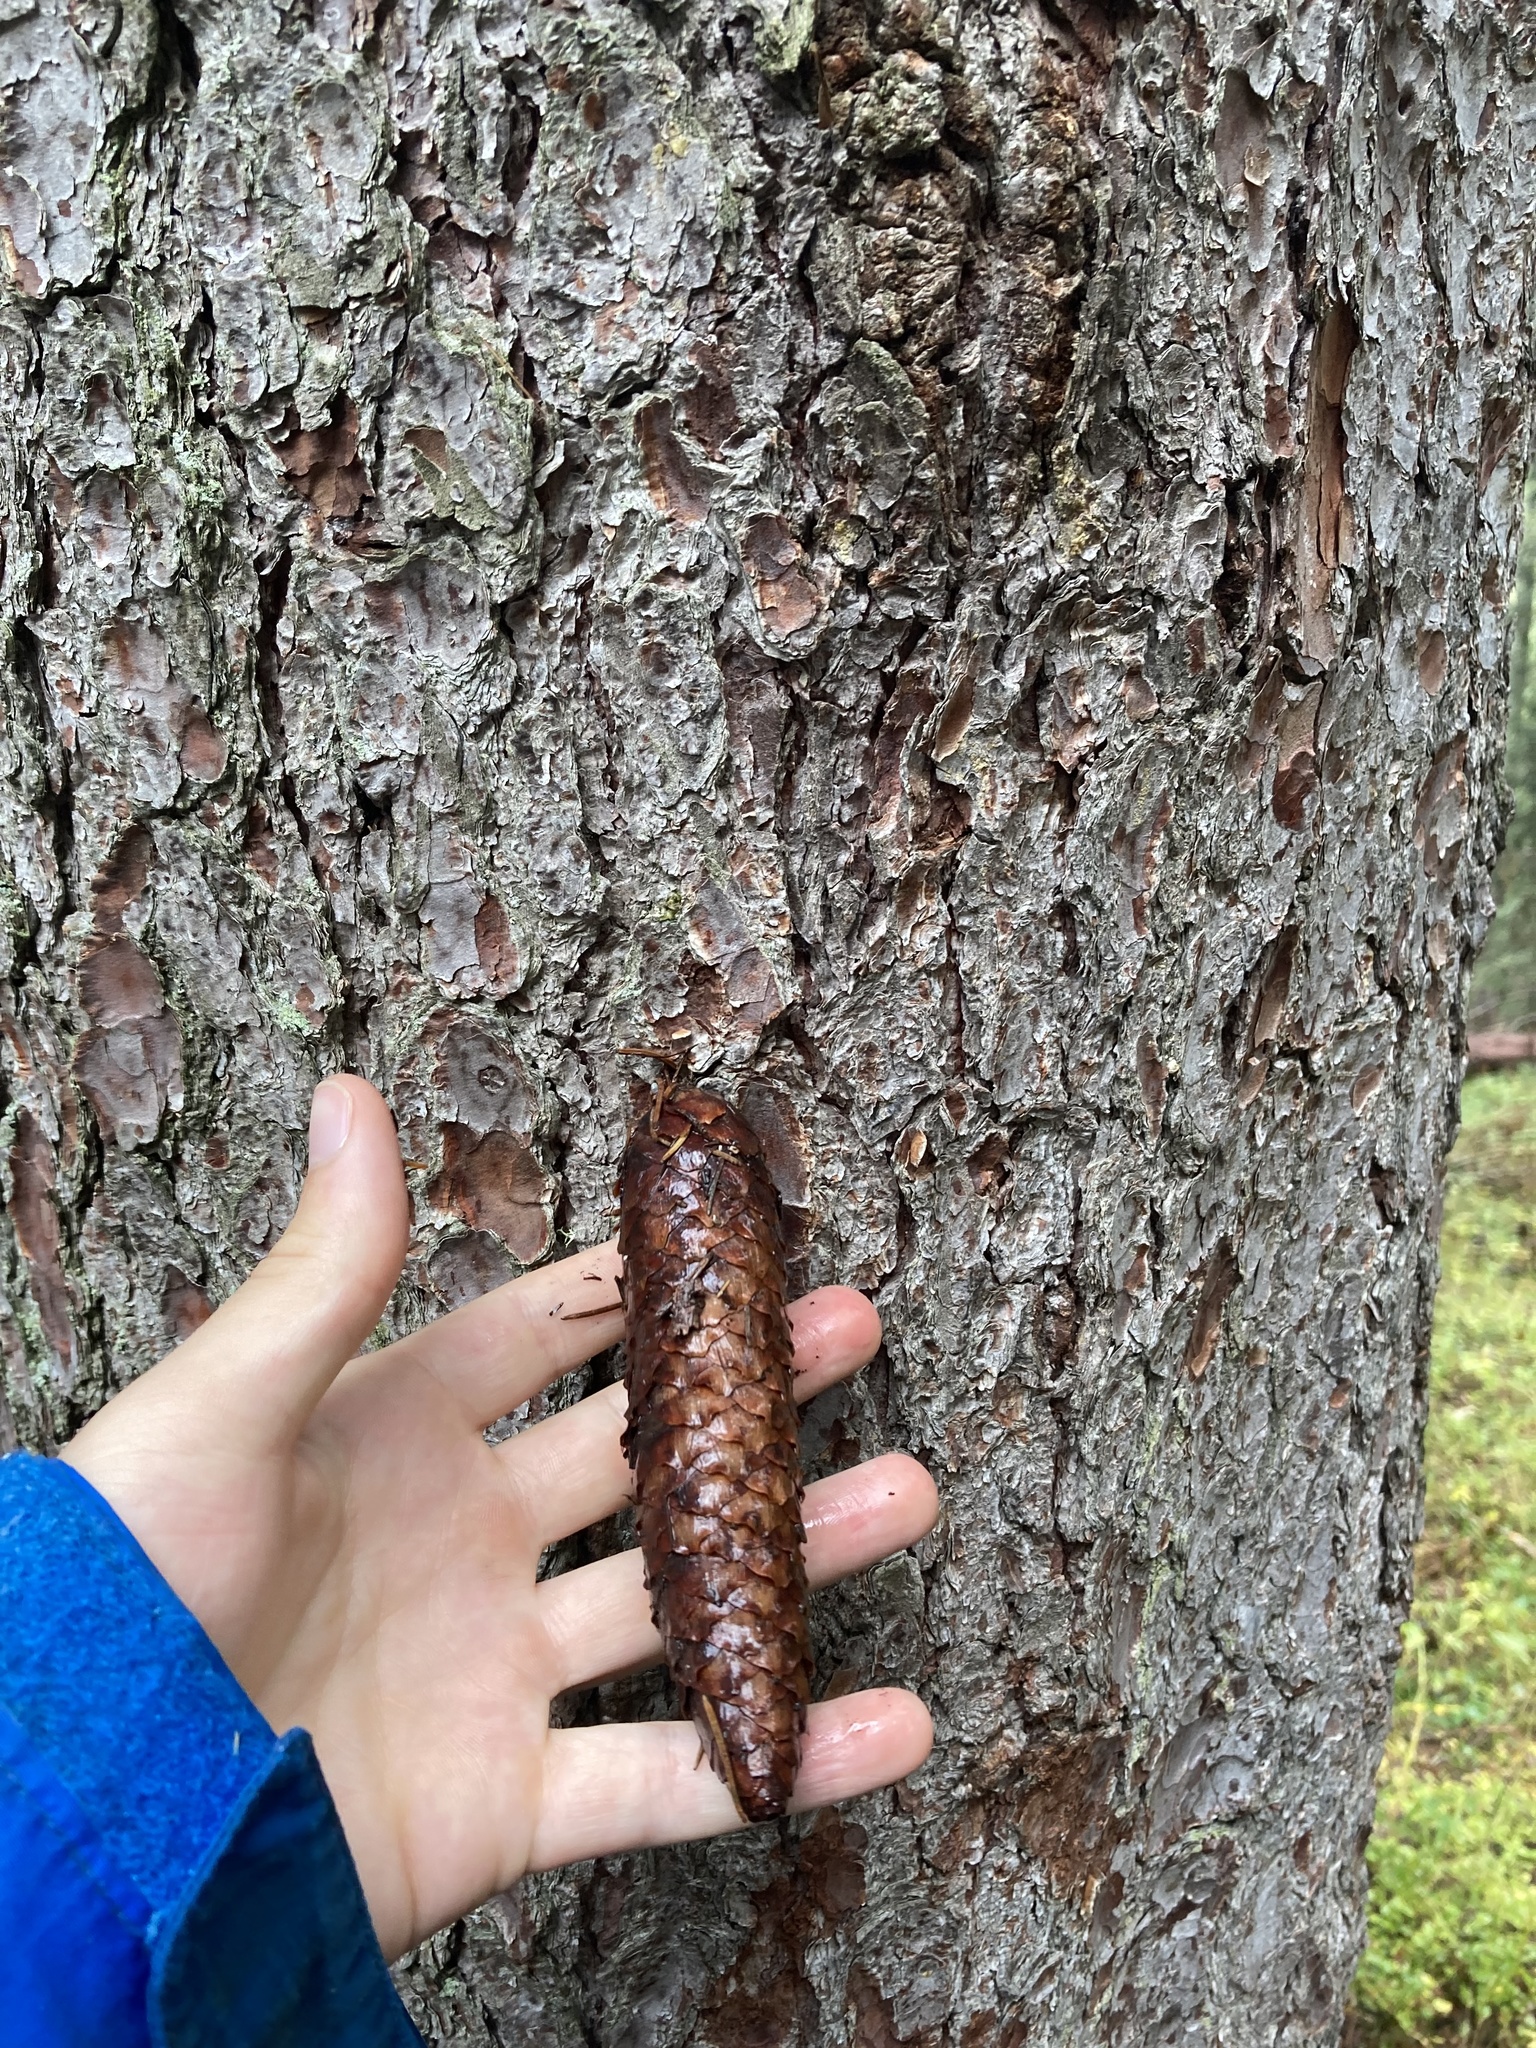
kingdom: Plantae
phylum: Tracheophyta
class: Pinopsida
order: Pinales
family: Pinaceae
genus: Picea
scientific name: Picea abies
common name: Norway spruce
